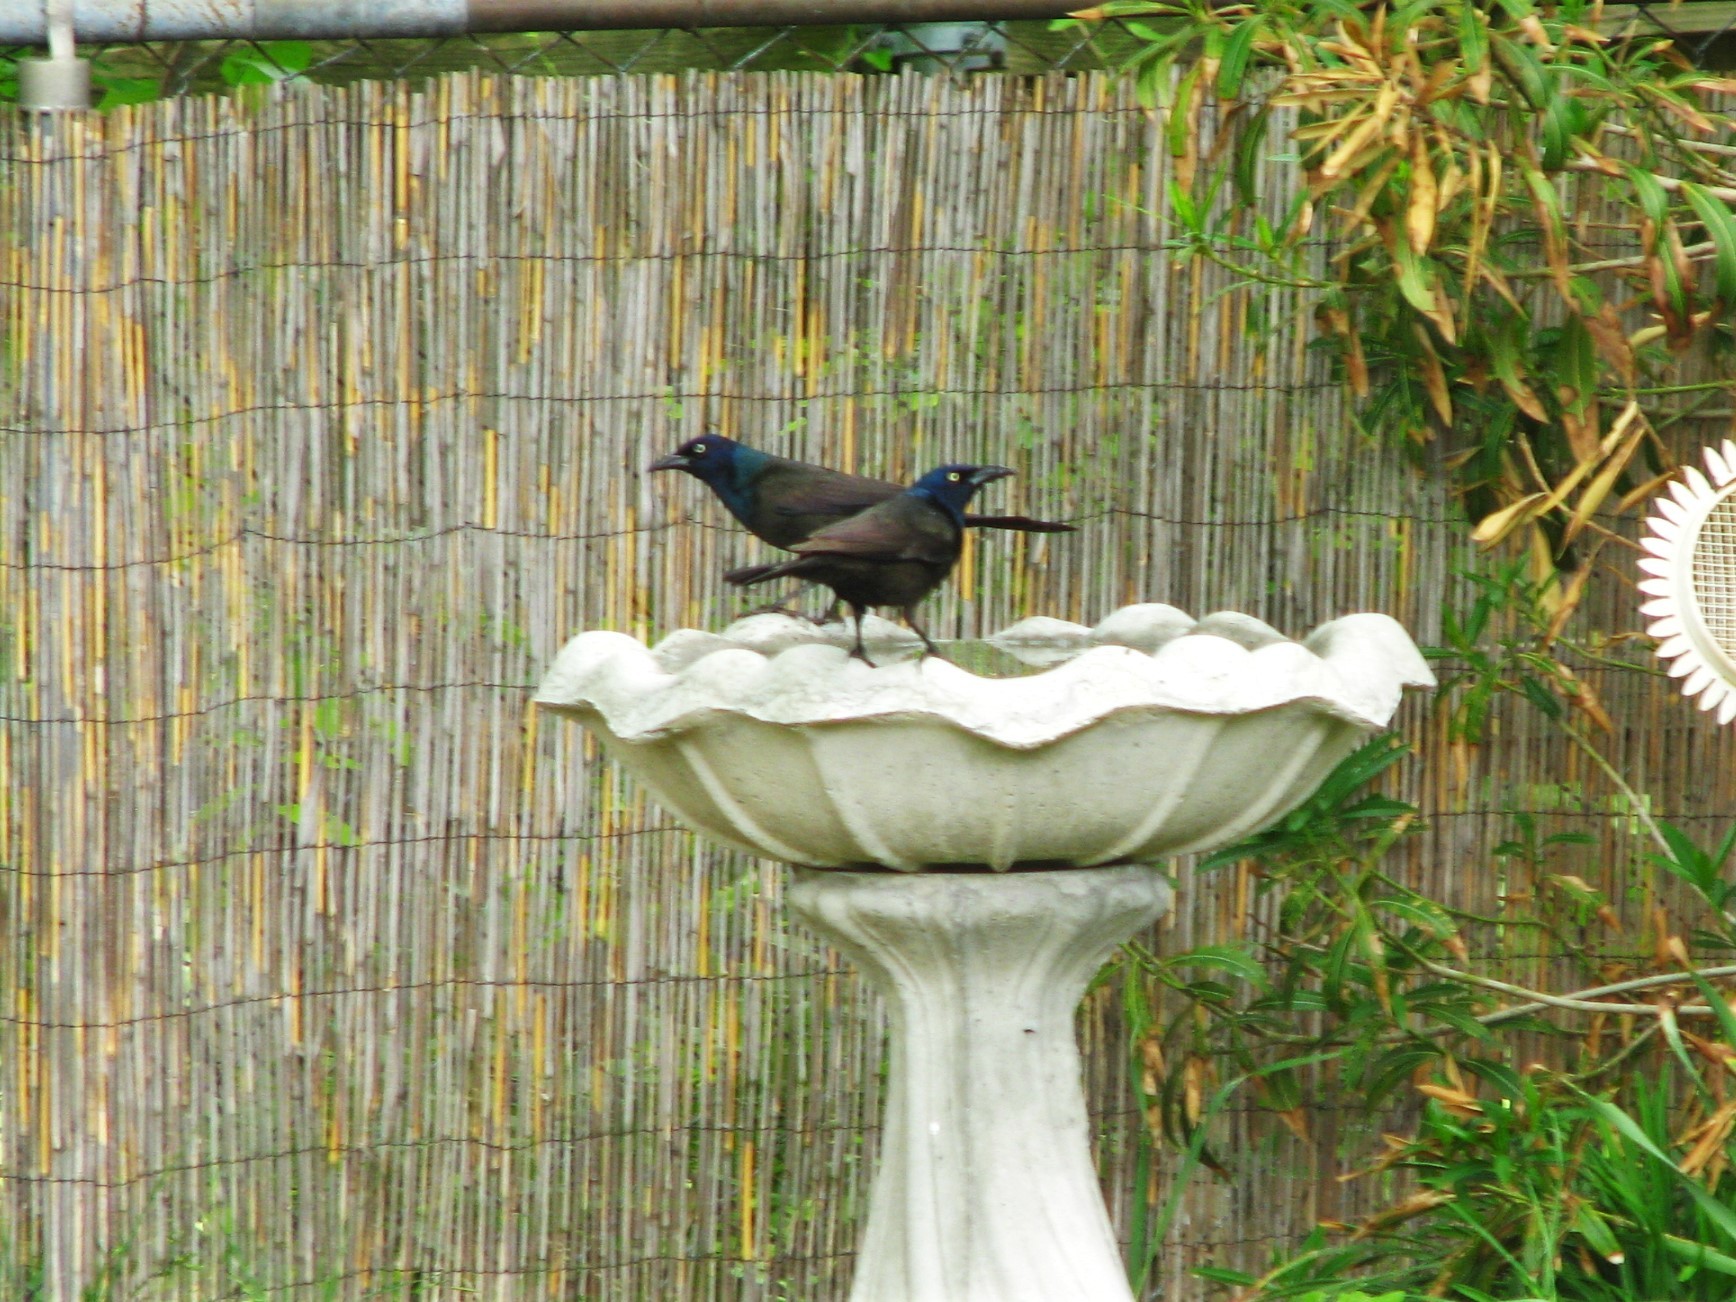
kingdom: Animalia
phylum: Chordata
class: Aves
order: Passeriformes
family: Icteridae
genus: Quiscalus
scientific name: Quiscalus quiscula
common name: Common grackle
